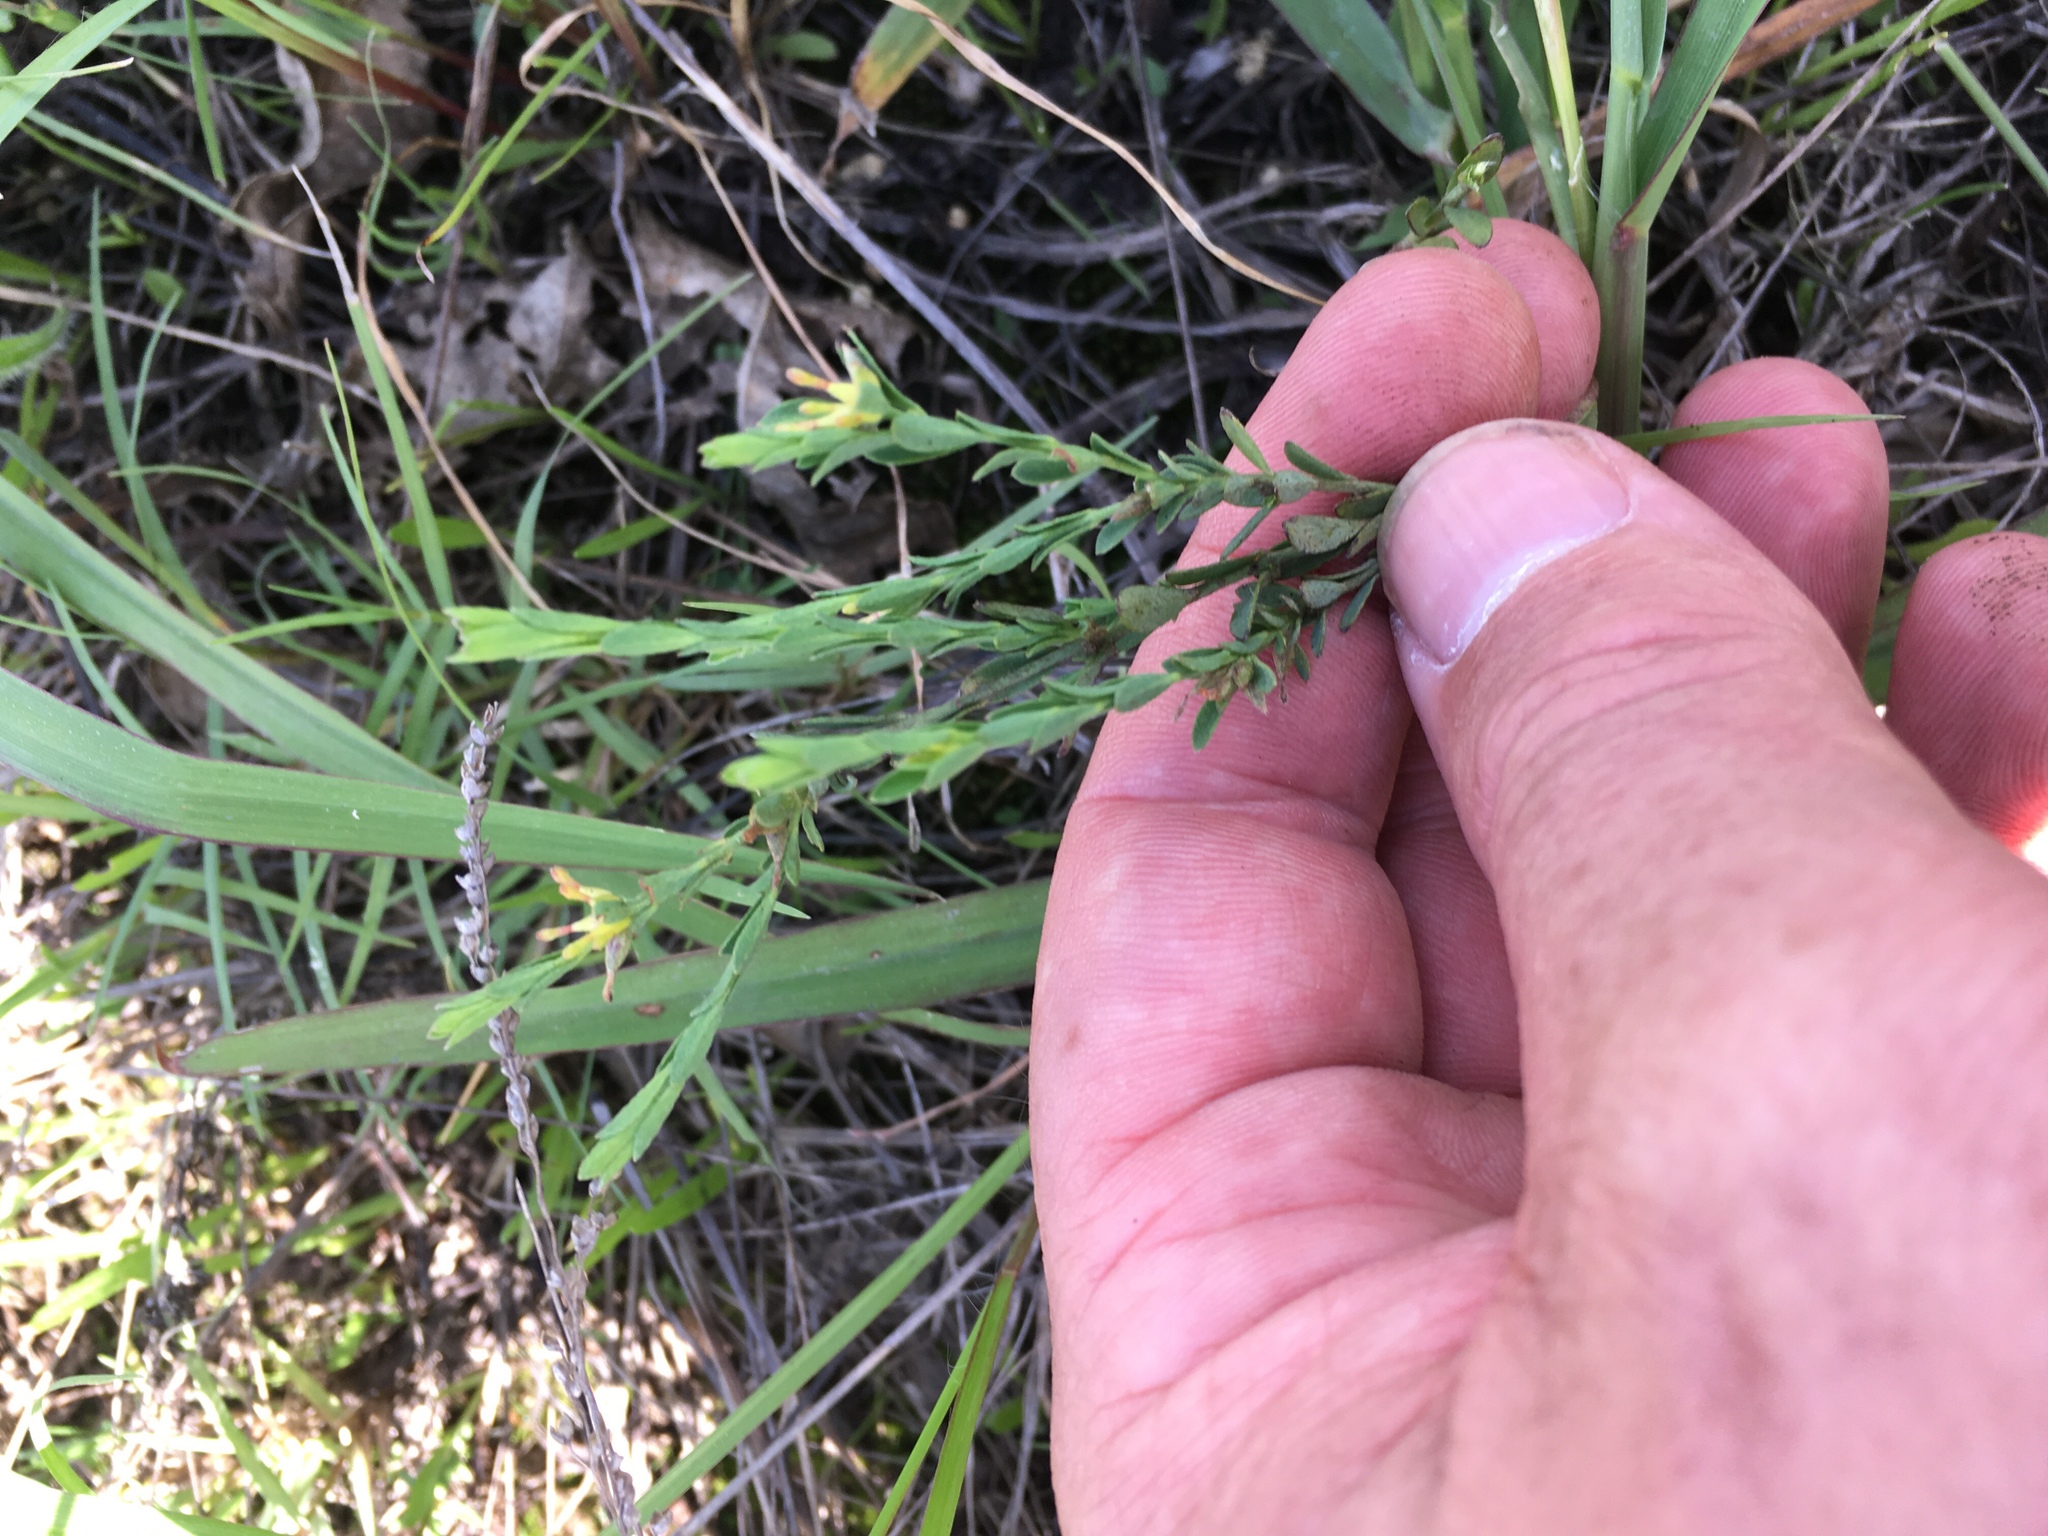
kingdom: Plantae
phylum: Tracheophyta
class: Magnoliopsida
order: Malvales
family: Thymelaeaceae
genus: Pimelea
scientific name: Pimelea curviflora
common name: Curved riceflower
